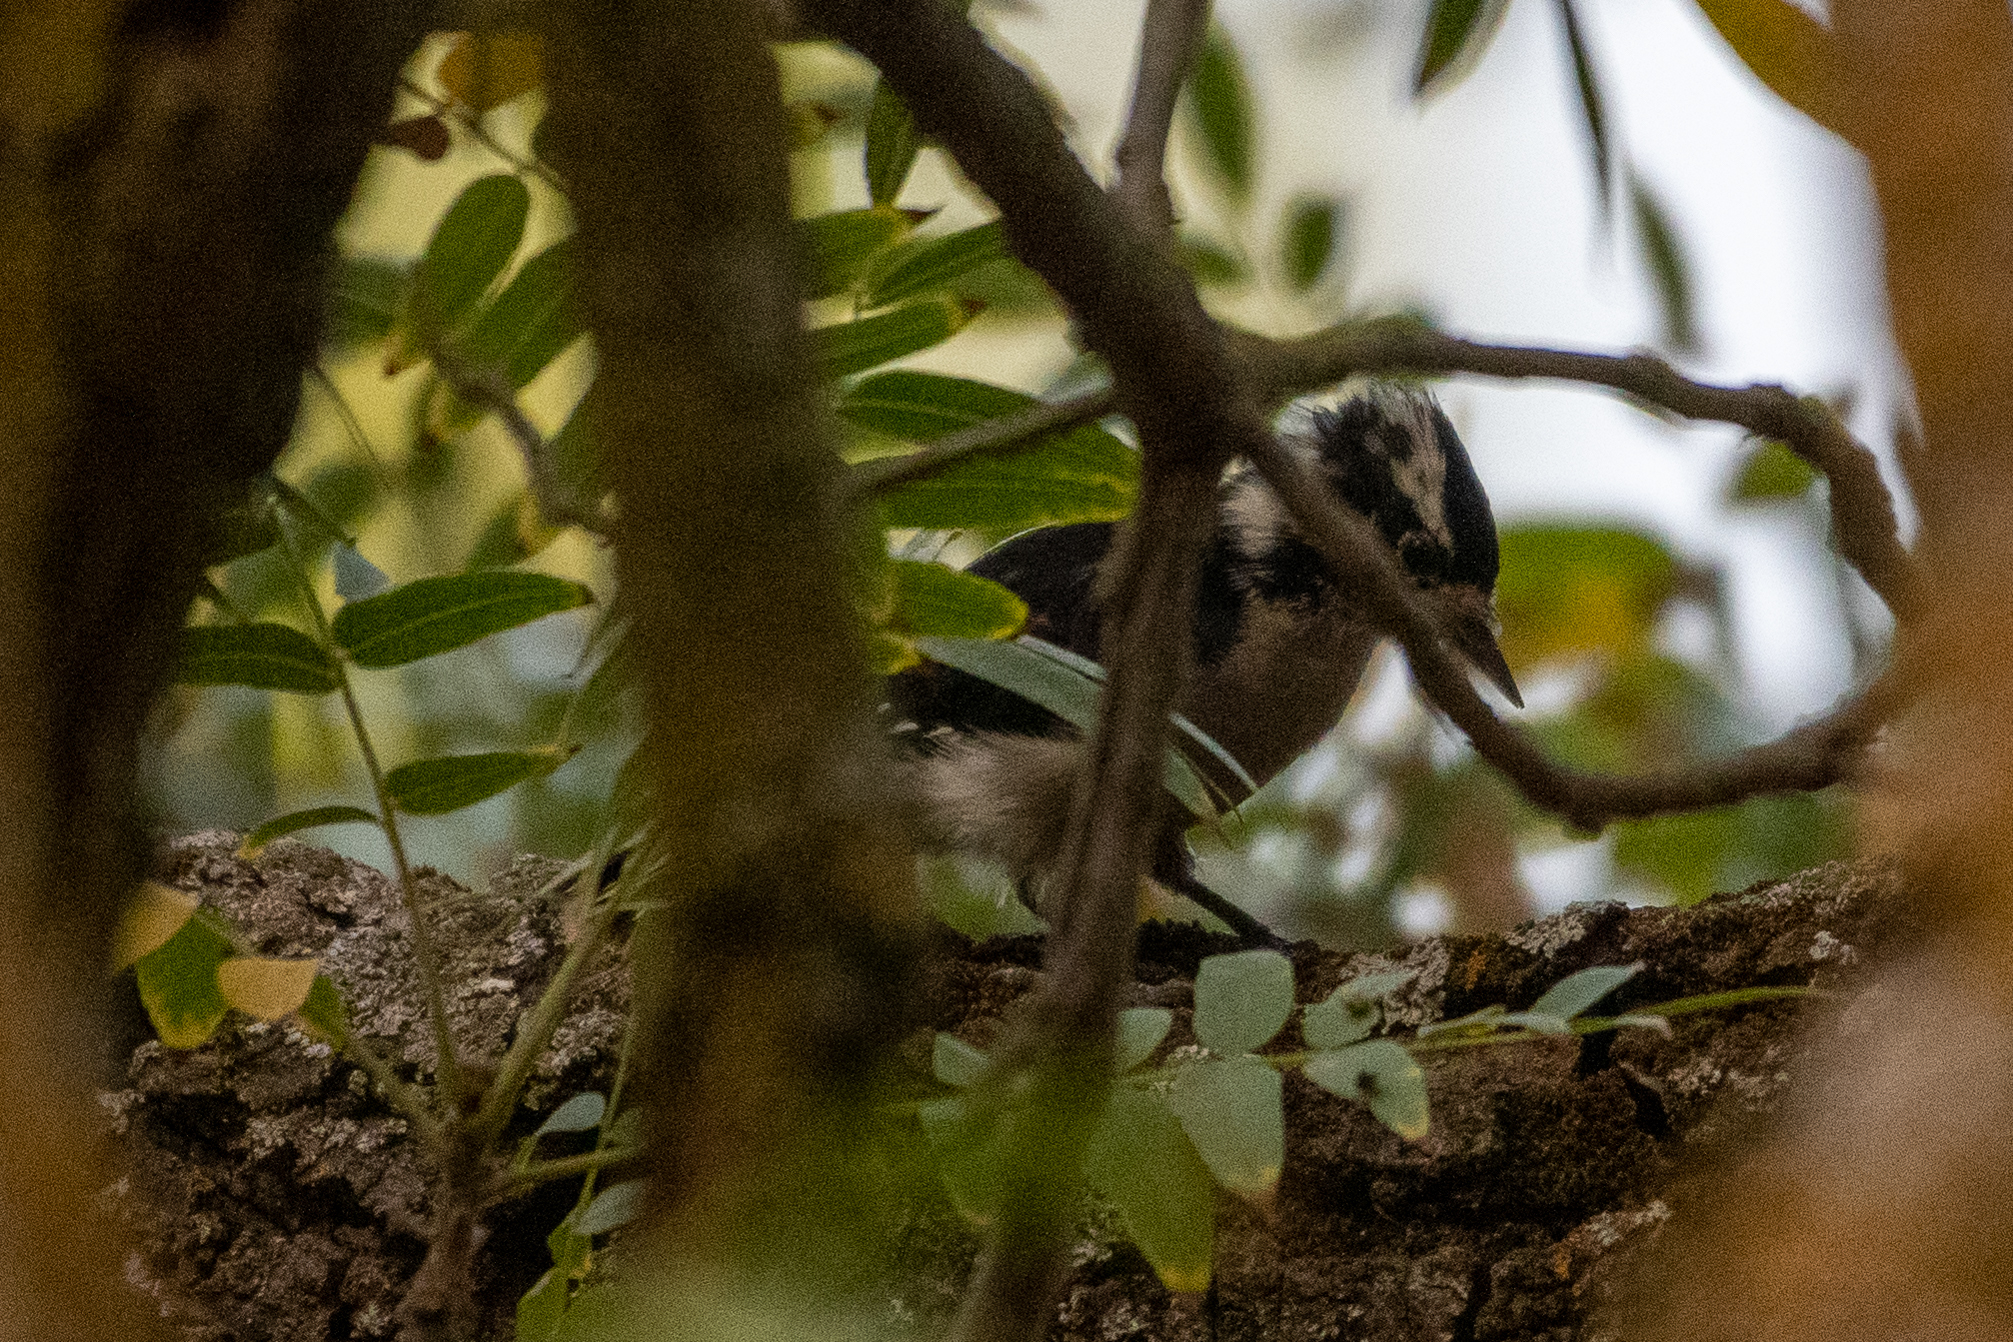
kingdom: Animalia
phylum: Chordata
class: Aves
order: Piciformes
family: Picidae
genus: Dryobates
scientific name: Dryobates pubescens
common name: Downy woodpecker
